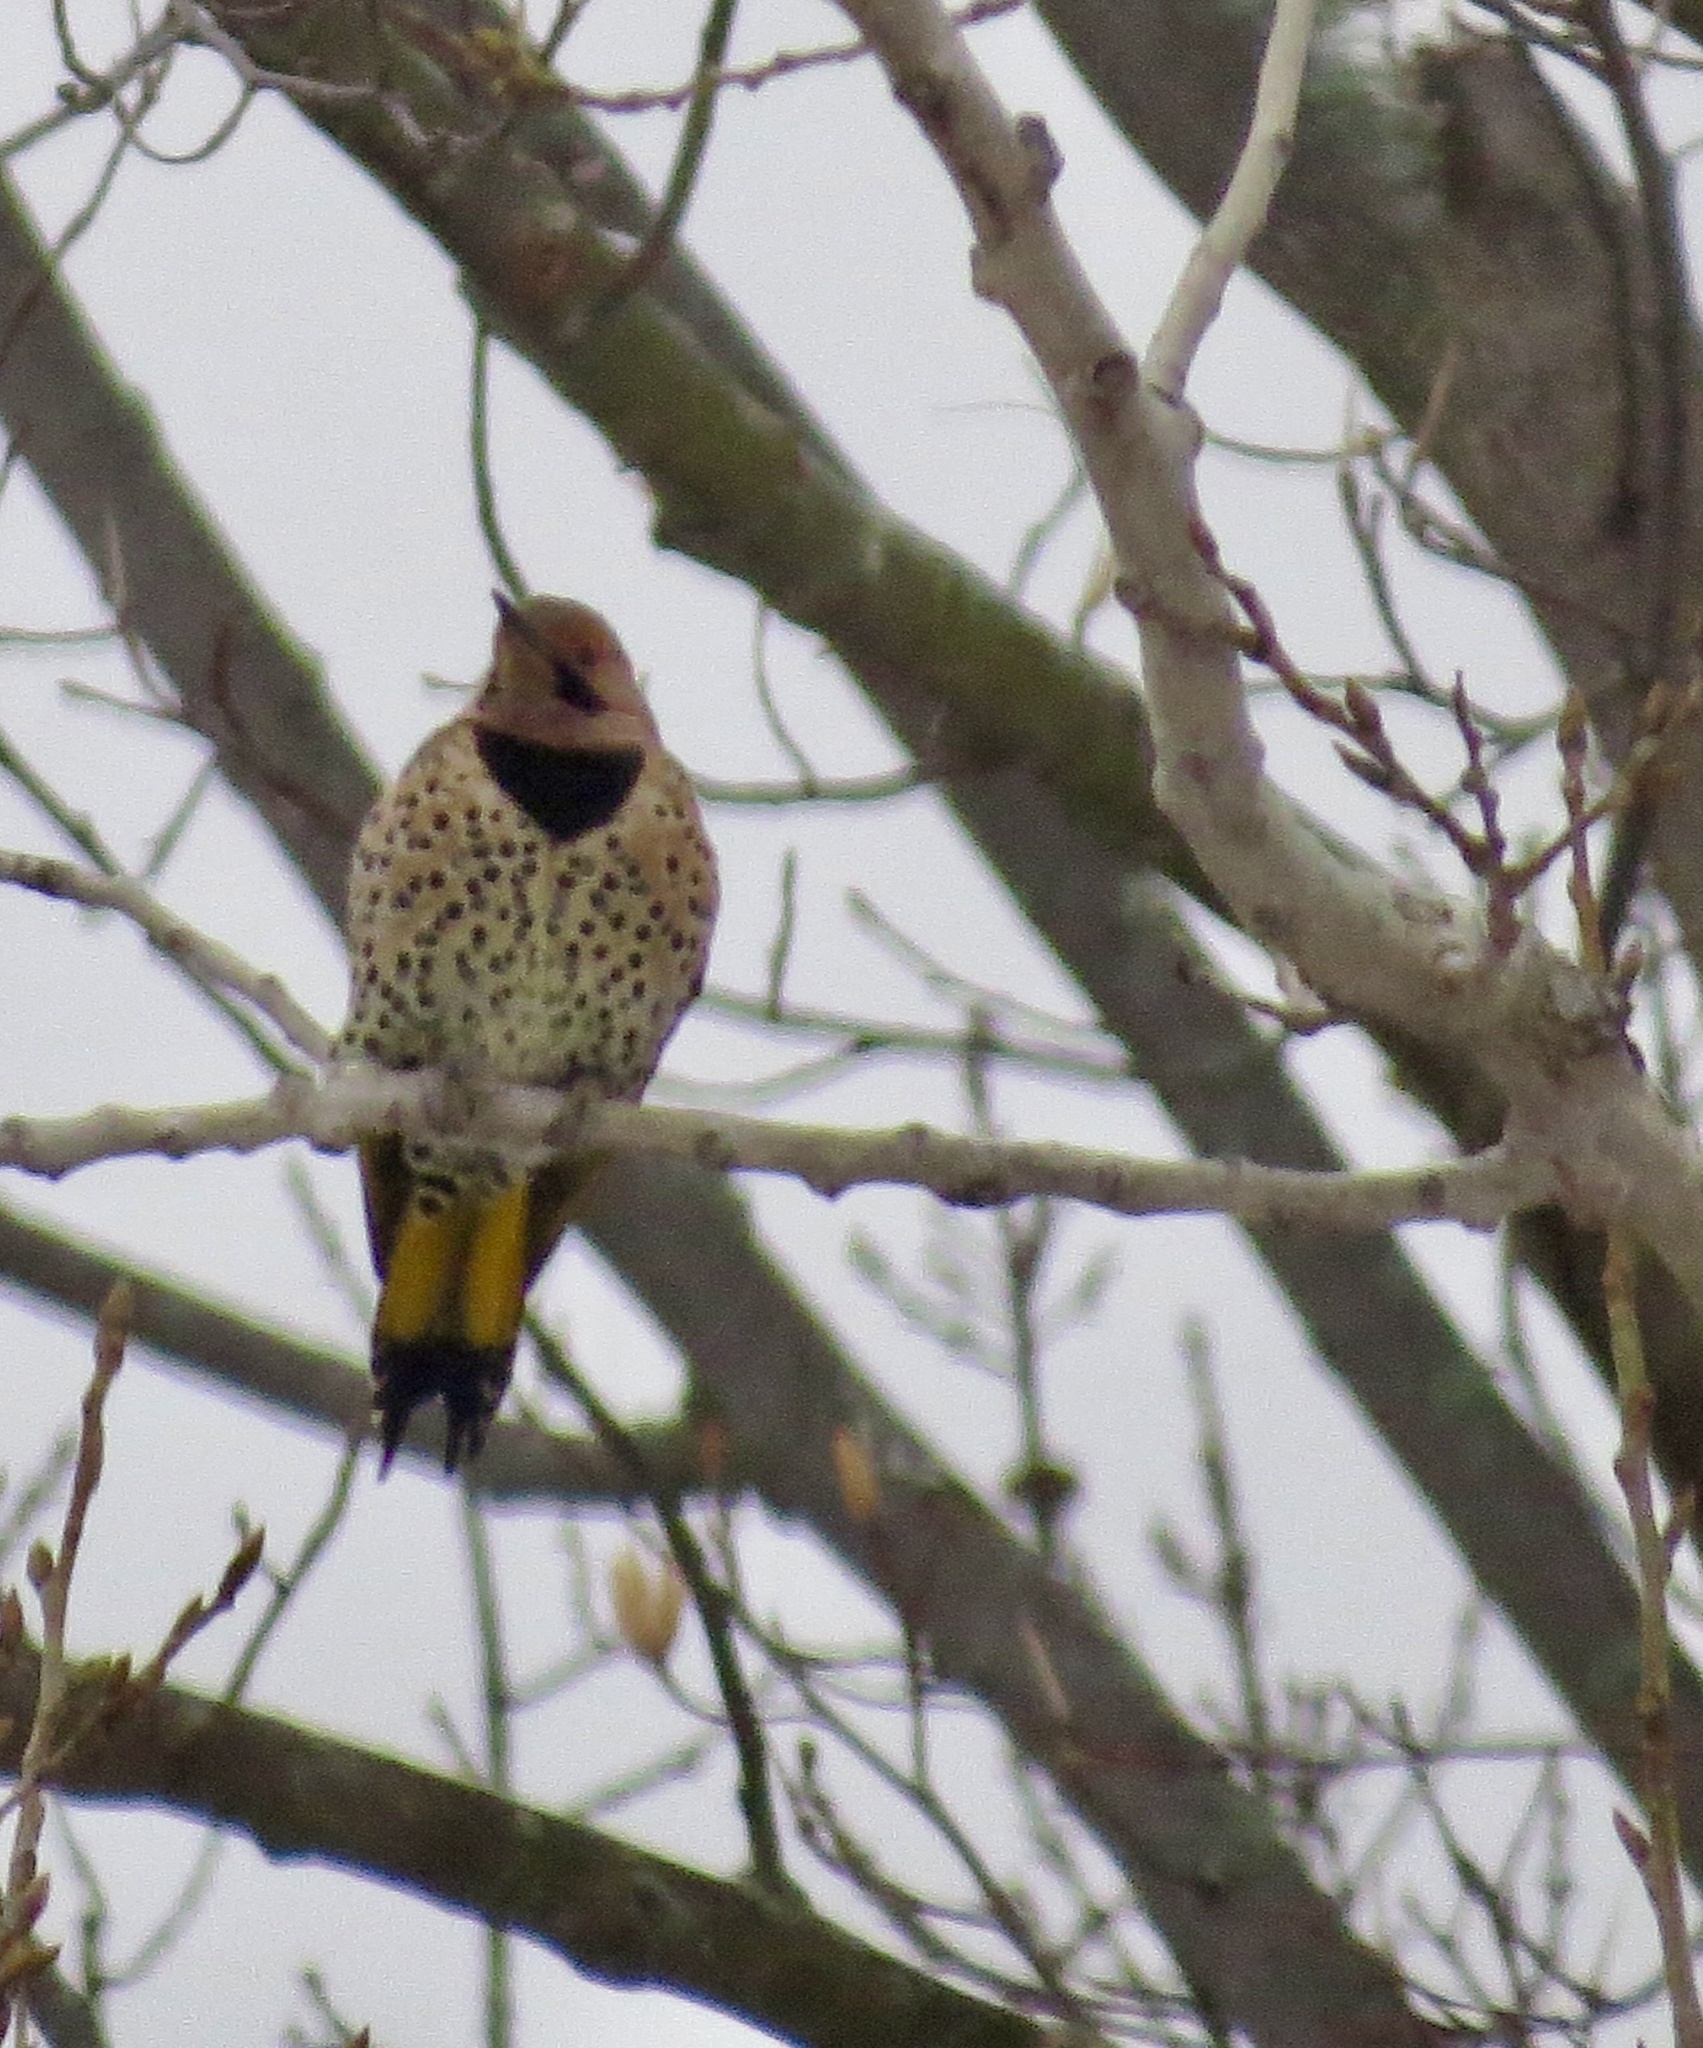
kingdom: Animalia
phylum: Chordata
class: Aves
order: Piciformes
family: Picidae
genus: Colaptes
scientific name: Colaptes auratus
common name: Northern flicker
